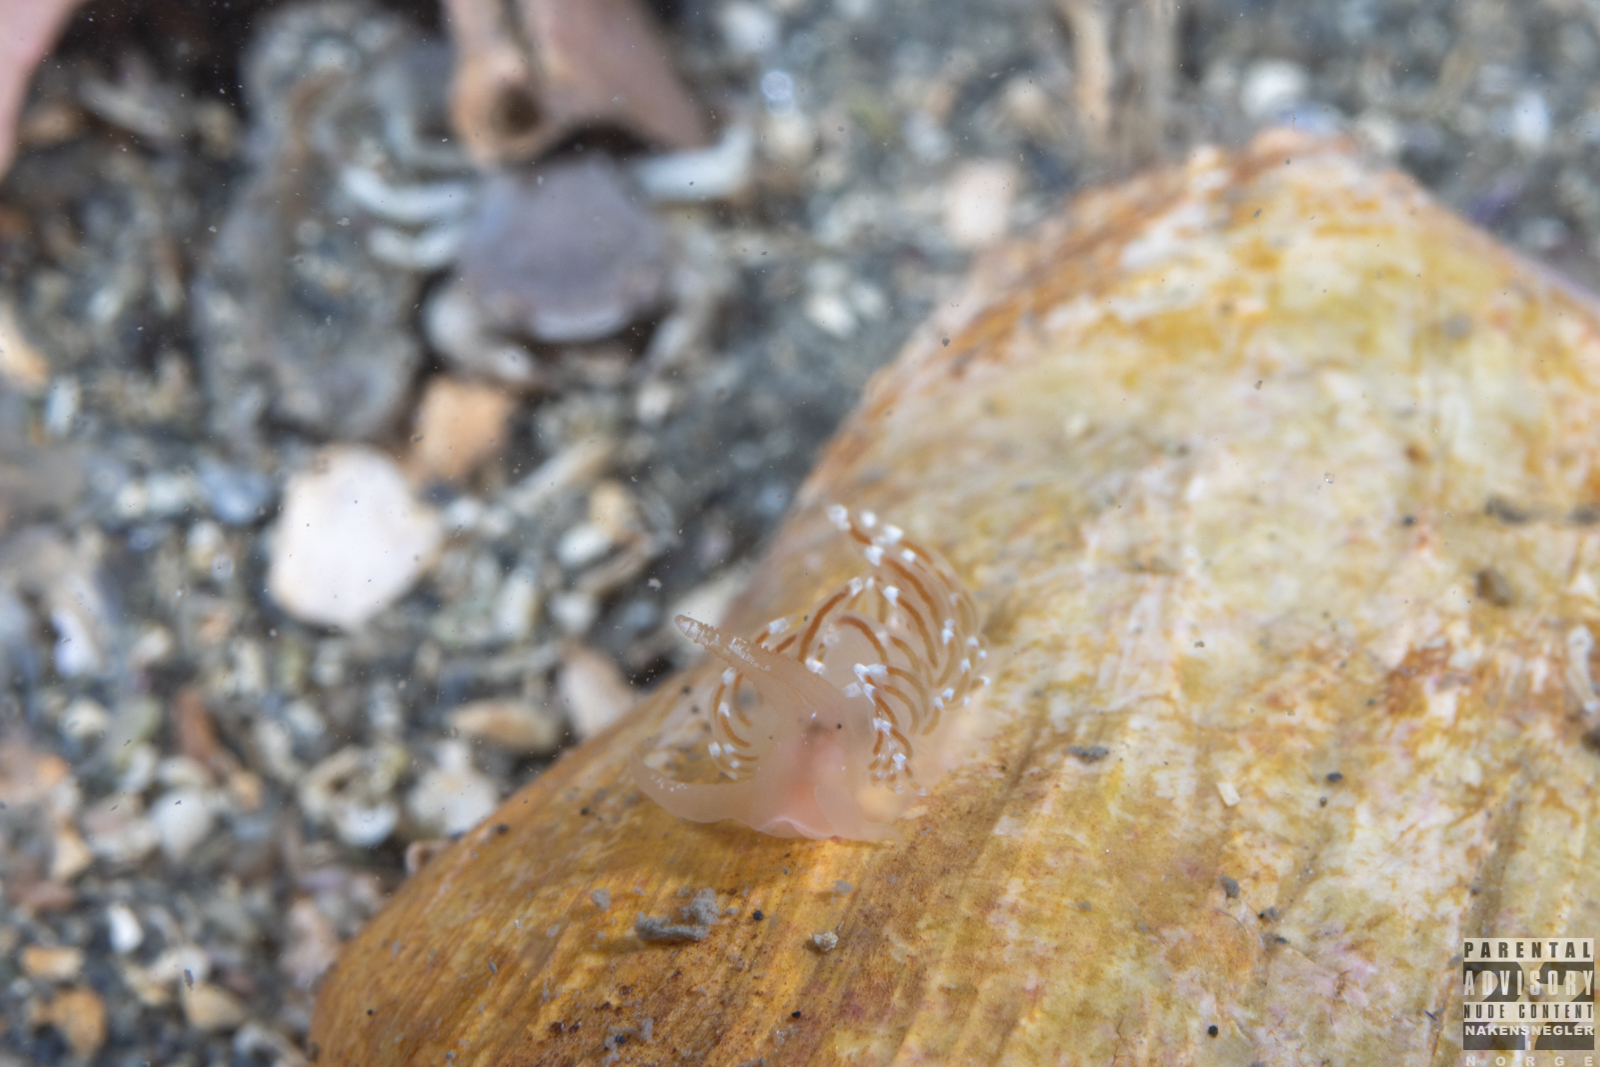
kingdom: Animalia
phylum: Mollusca
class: Gastropoda
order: Nudibranchia
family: Facelinidae
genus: Facelina
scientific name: Facelina bostoniensis
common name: Boston facelina
